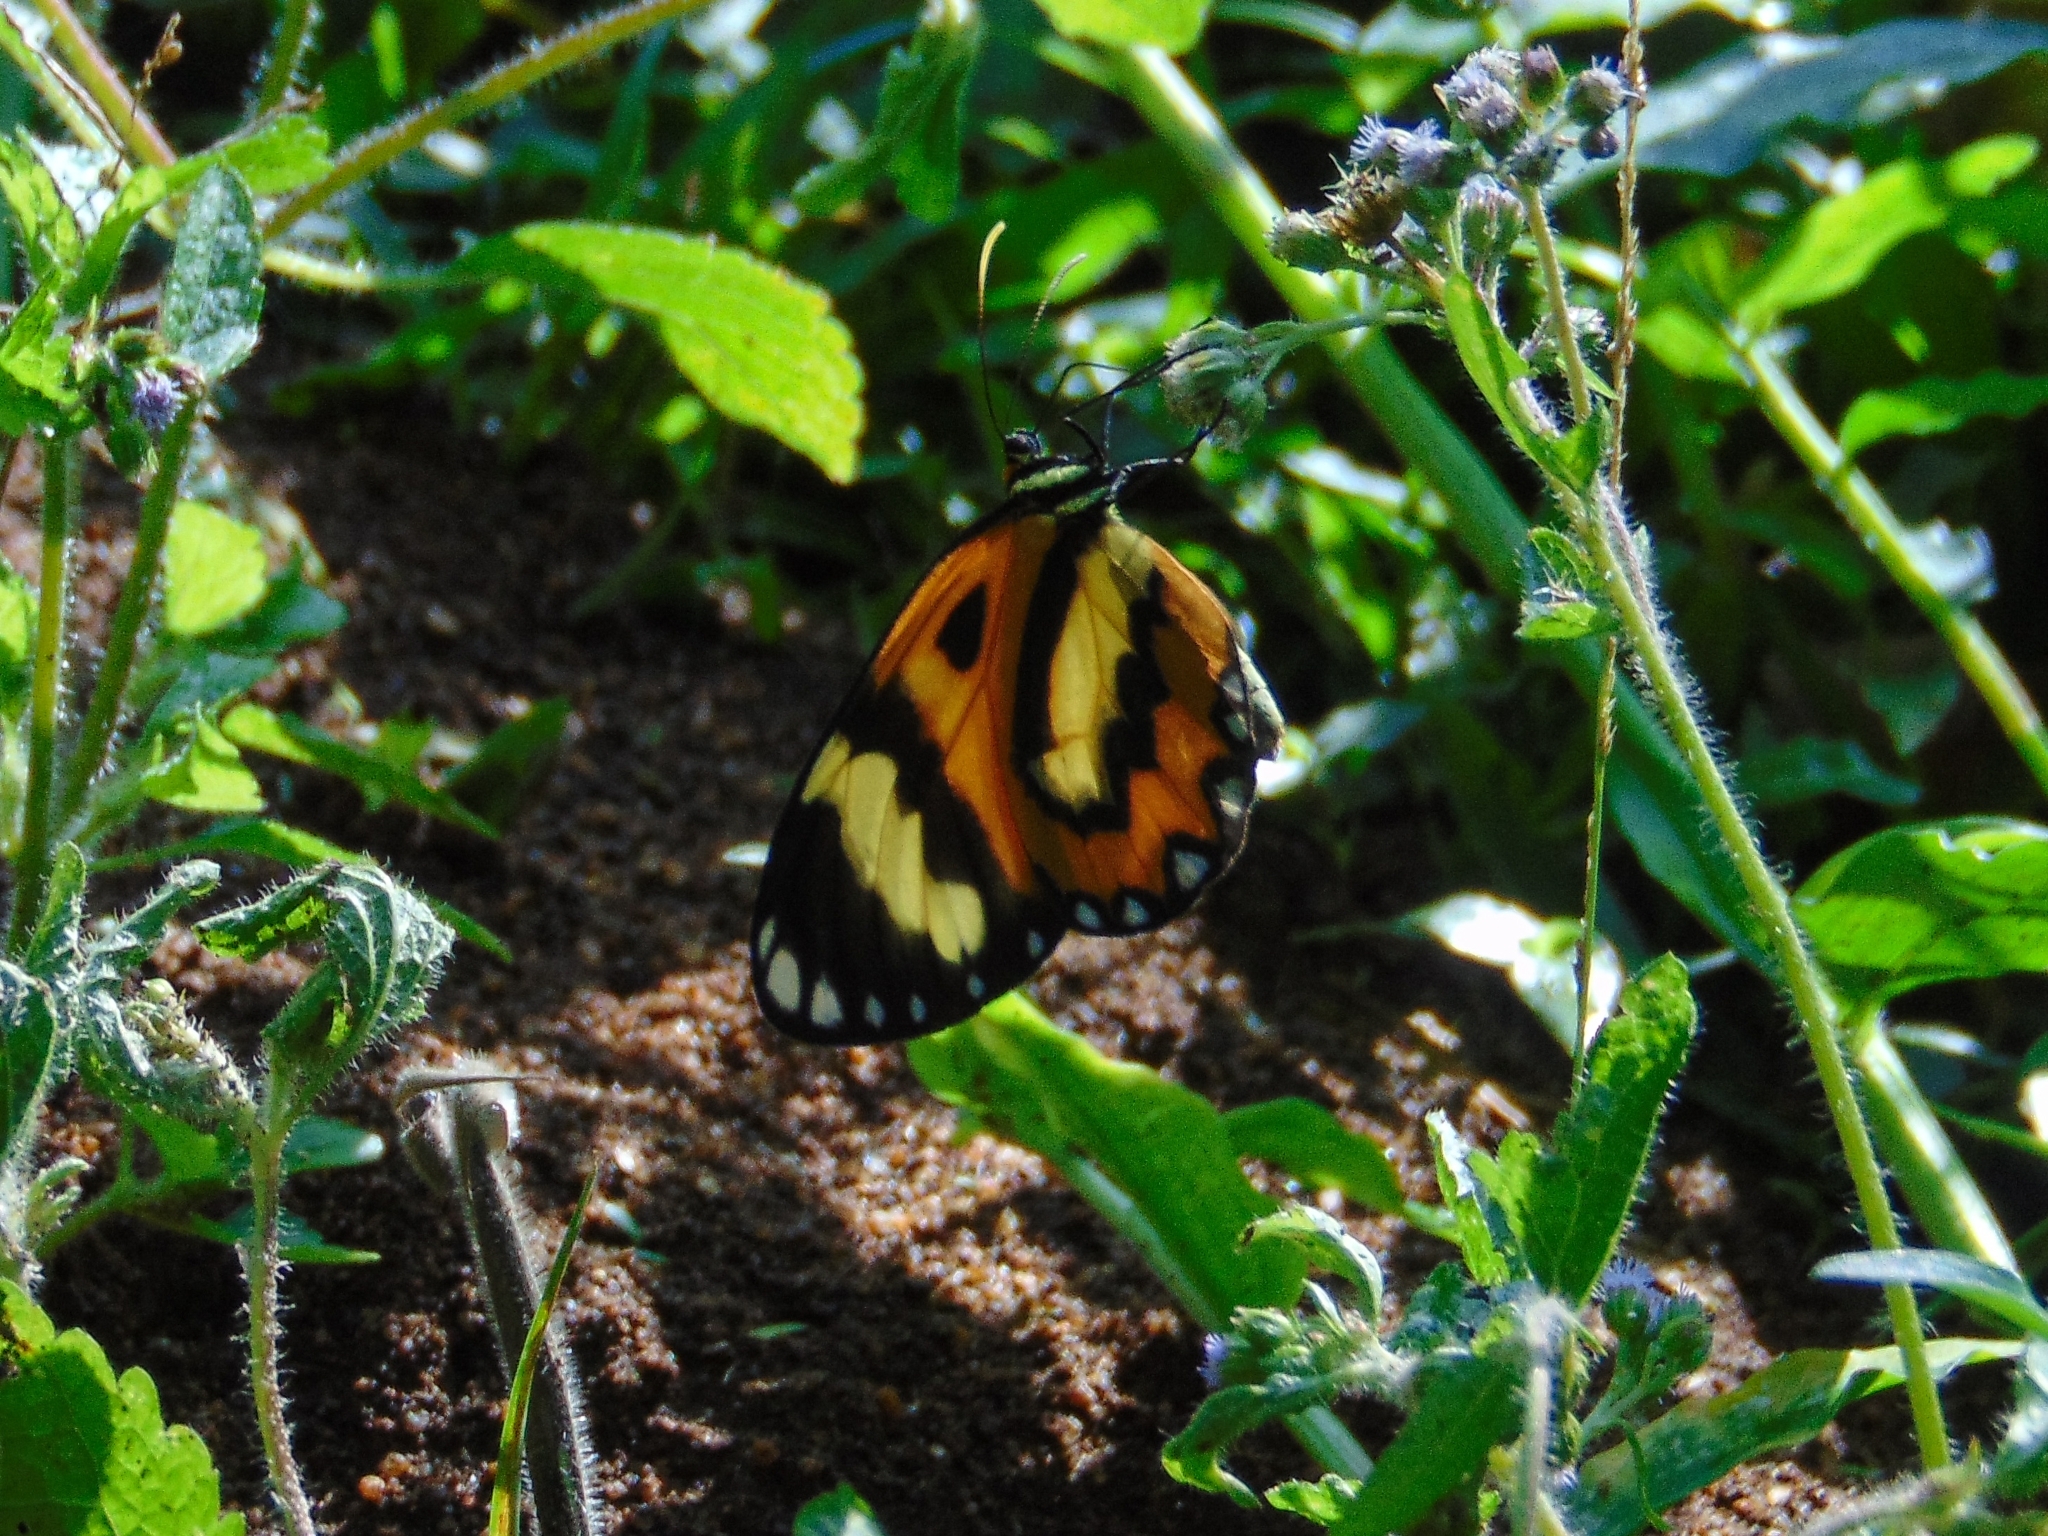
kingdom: Animalia
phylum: Arthropoda
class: Insecta
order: Lepidoptera
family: Nymphalidae
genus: Placidina
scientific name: Placidina euryanassa
